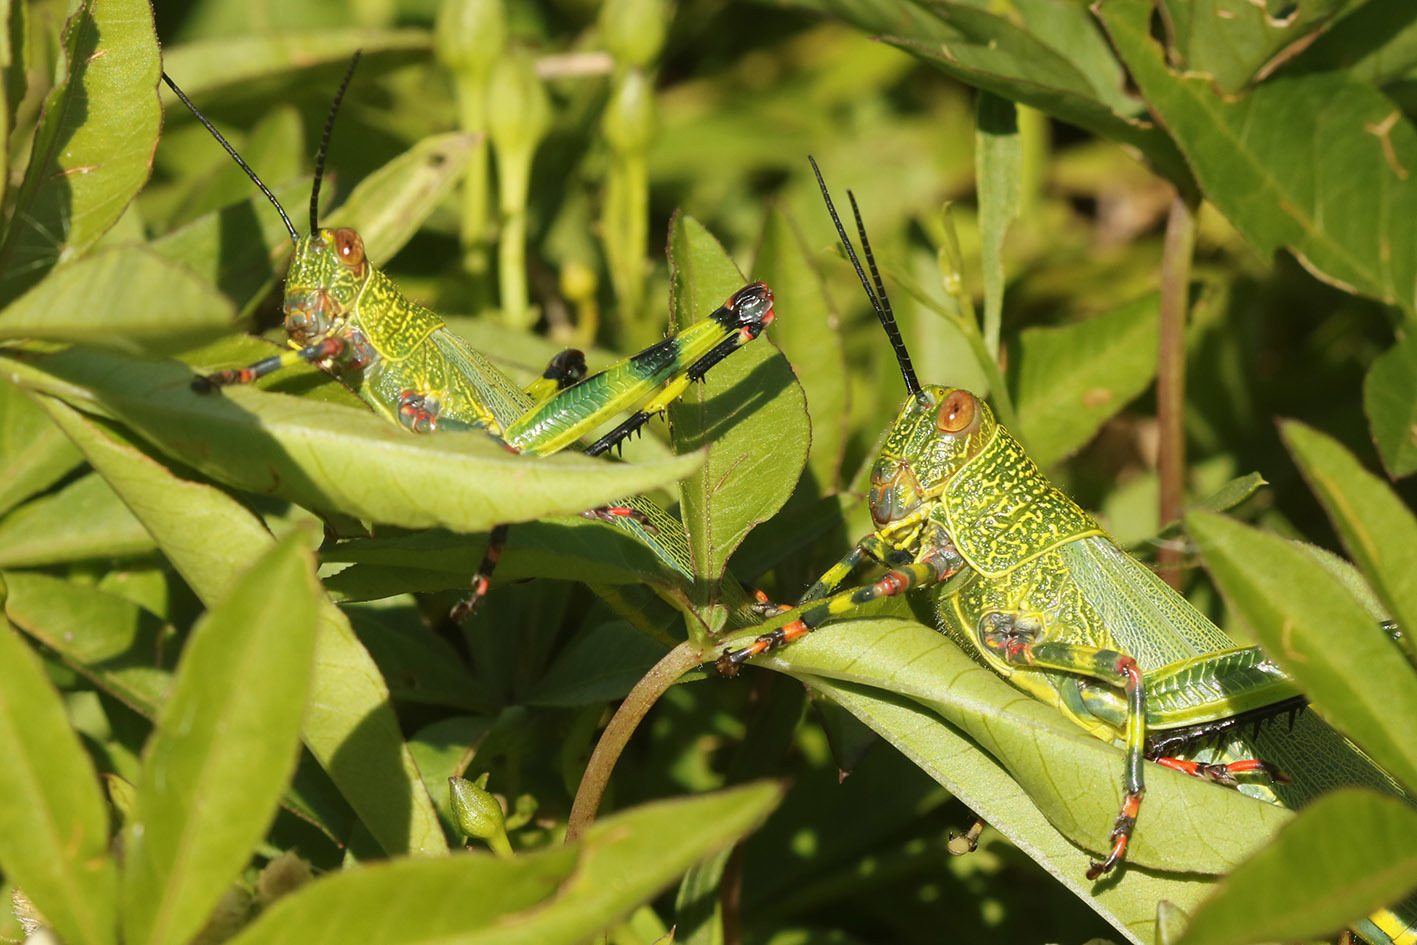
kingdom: Animalia
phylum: Arthropoda
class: Insecta
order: Orthoptera
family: Romaleidae
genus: Zoniopoda
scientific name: Zoniopoda tarsata
